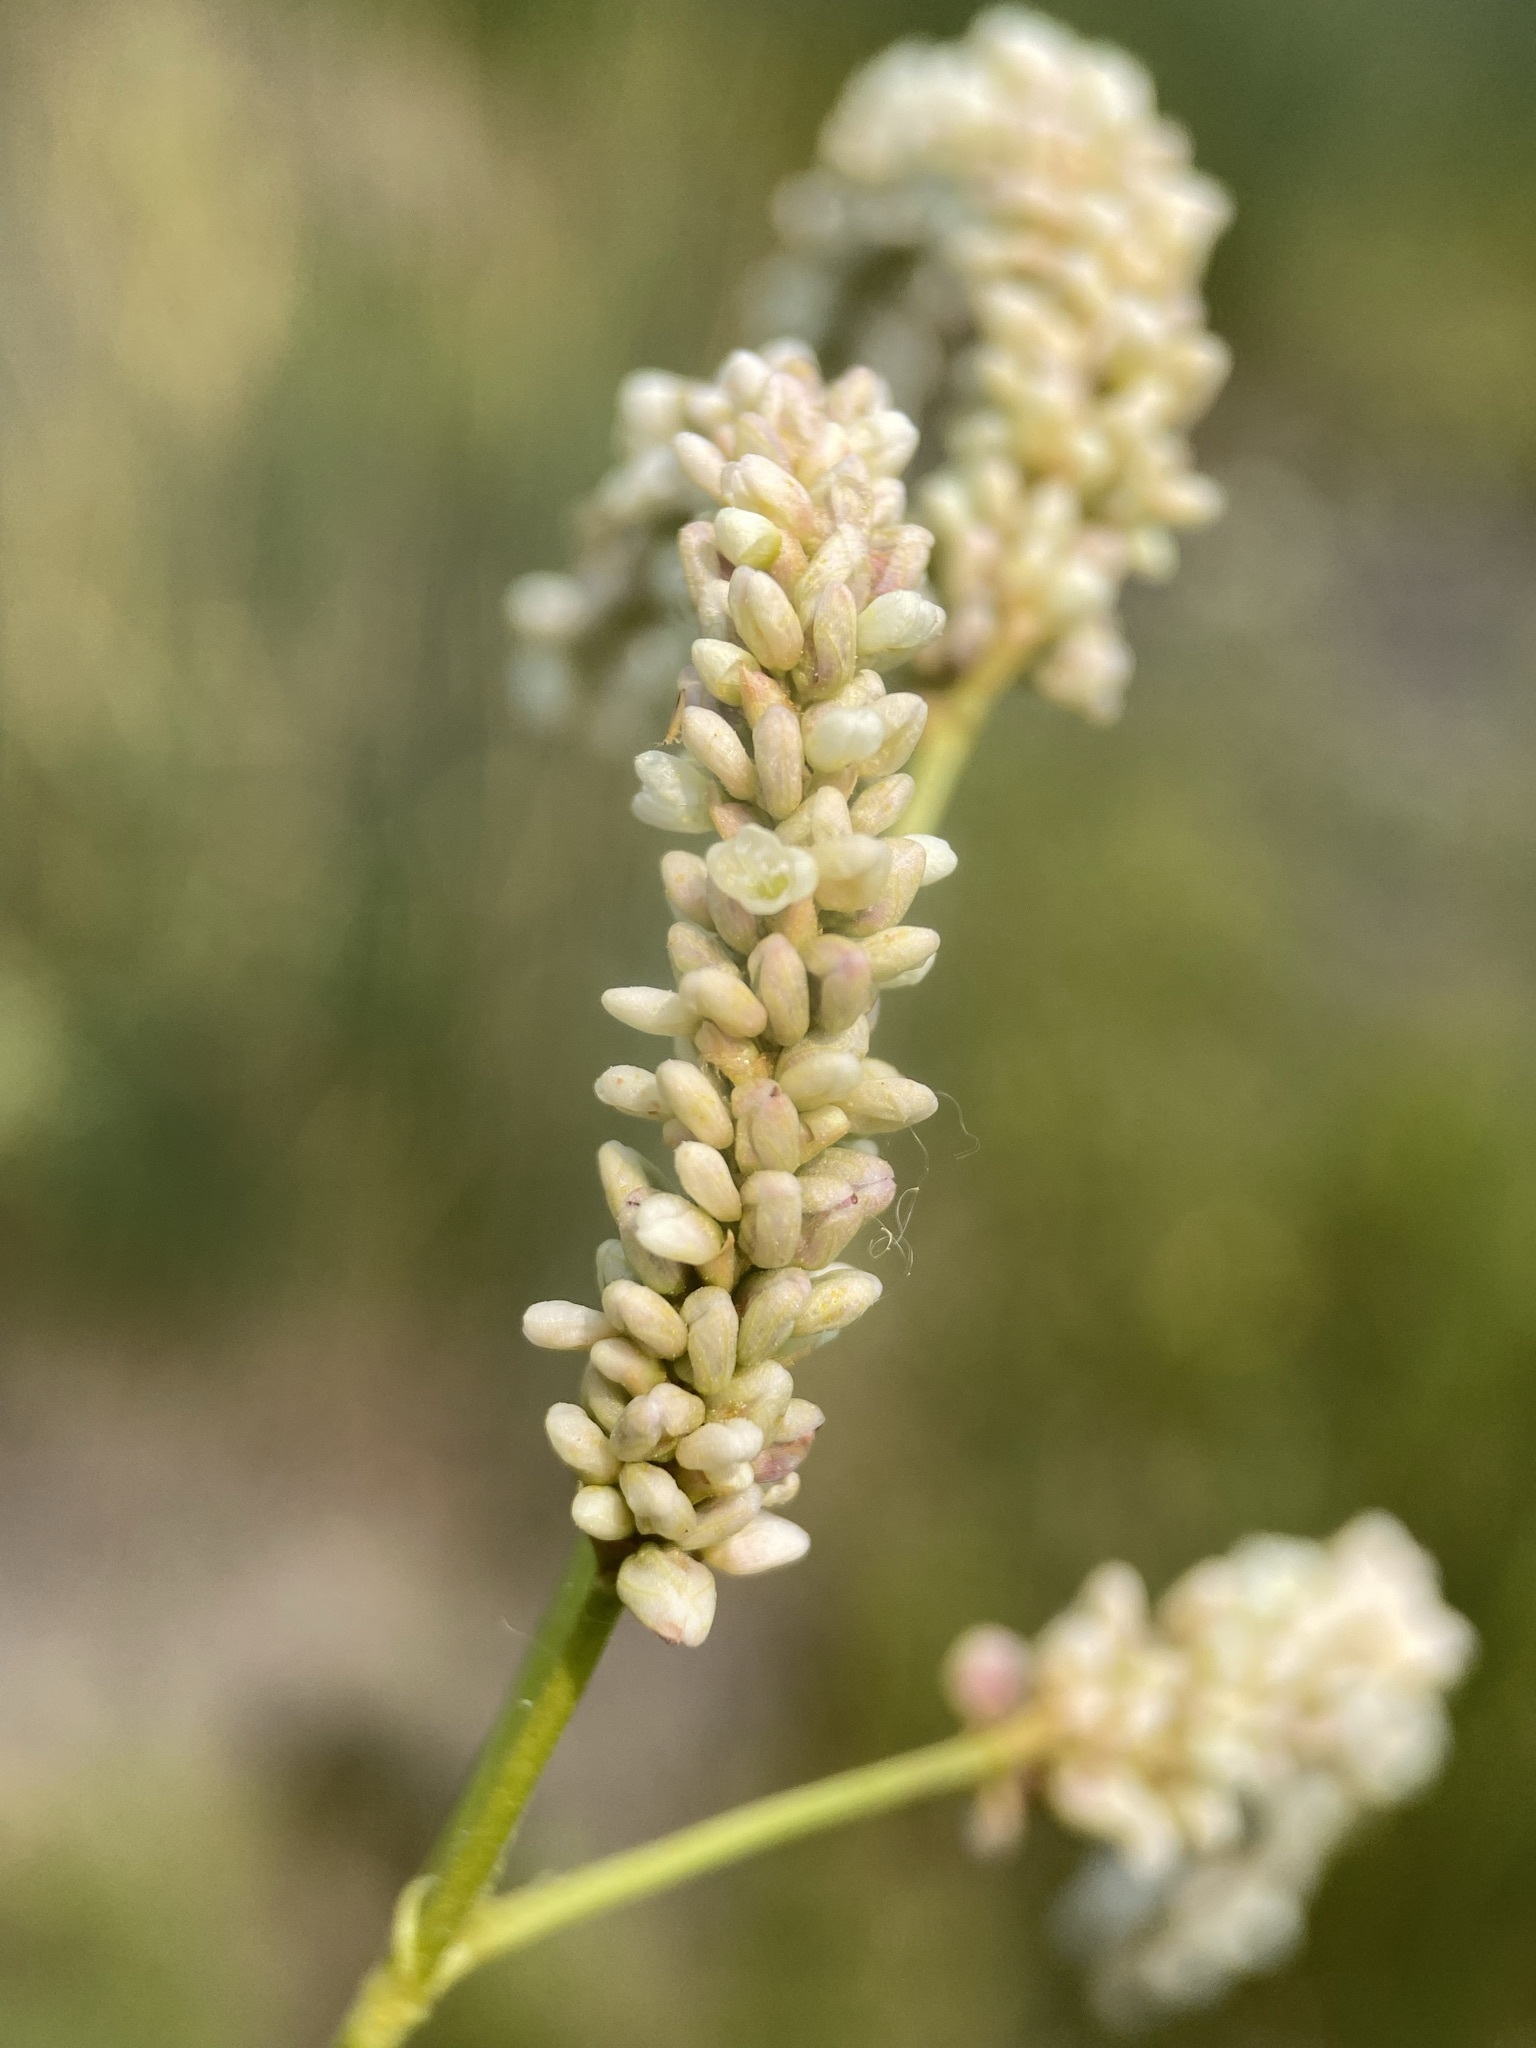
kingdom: Plantae
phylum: Tracheophyta
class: Magnoliopsida
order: Caryophyllales
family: Polygonaceae
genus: Persicaria
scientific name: Persicaria lapathifolia
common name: Curlytop knotweed
